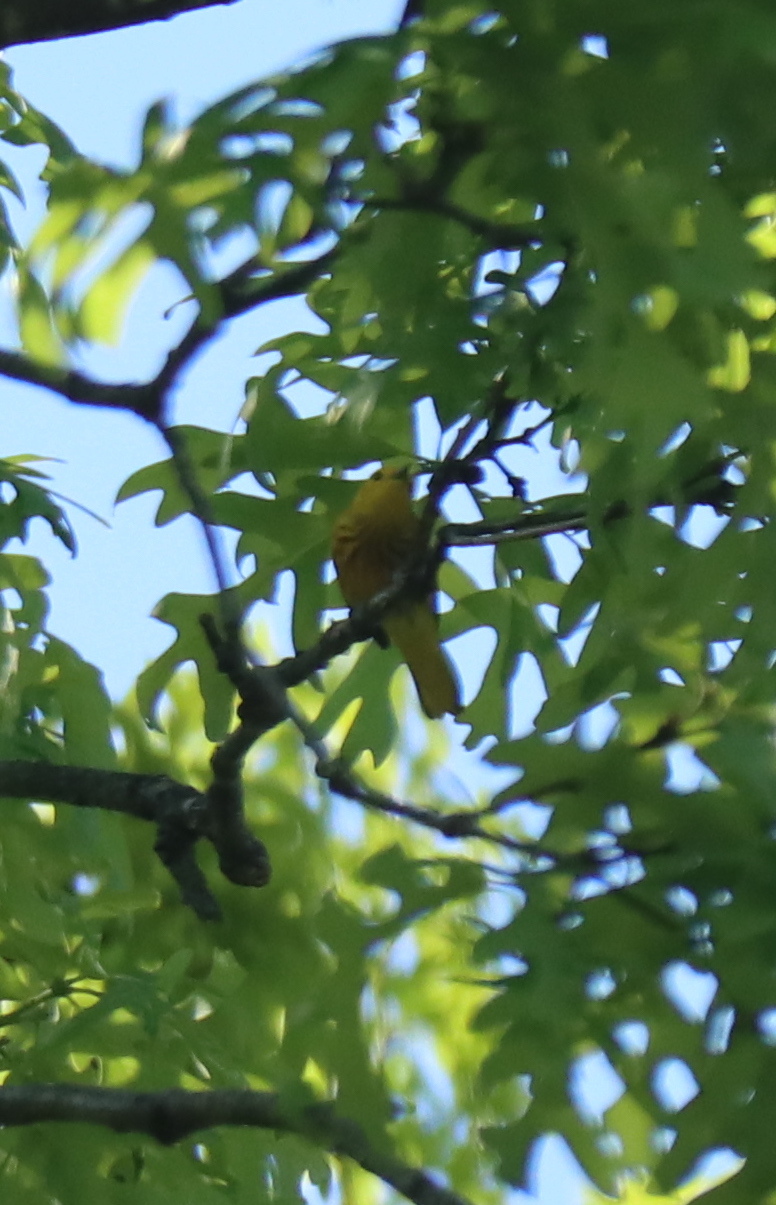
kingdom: Animalia
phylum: Chordata
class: Aves
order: Passeriformes
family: Parulidae
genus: Setophaga
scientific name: Setophaga petechia
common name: Yellow warbler
